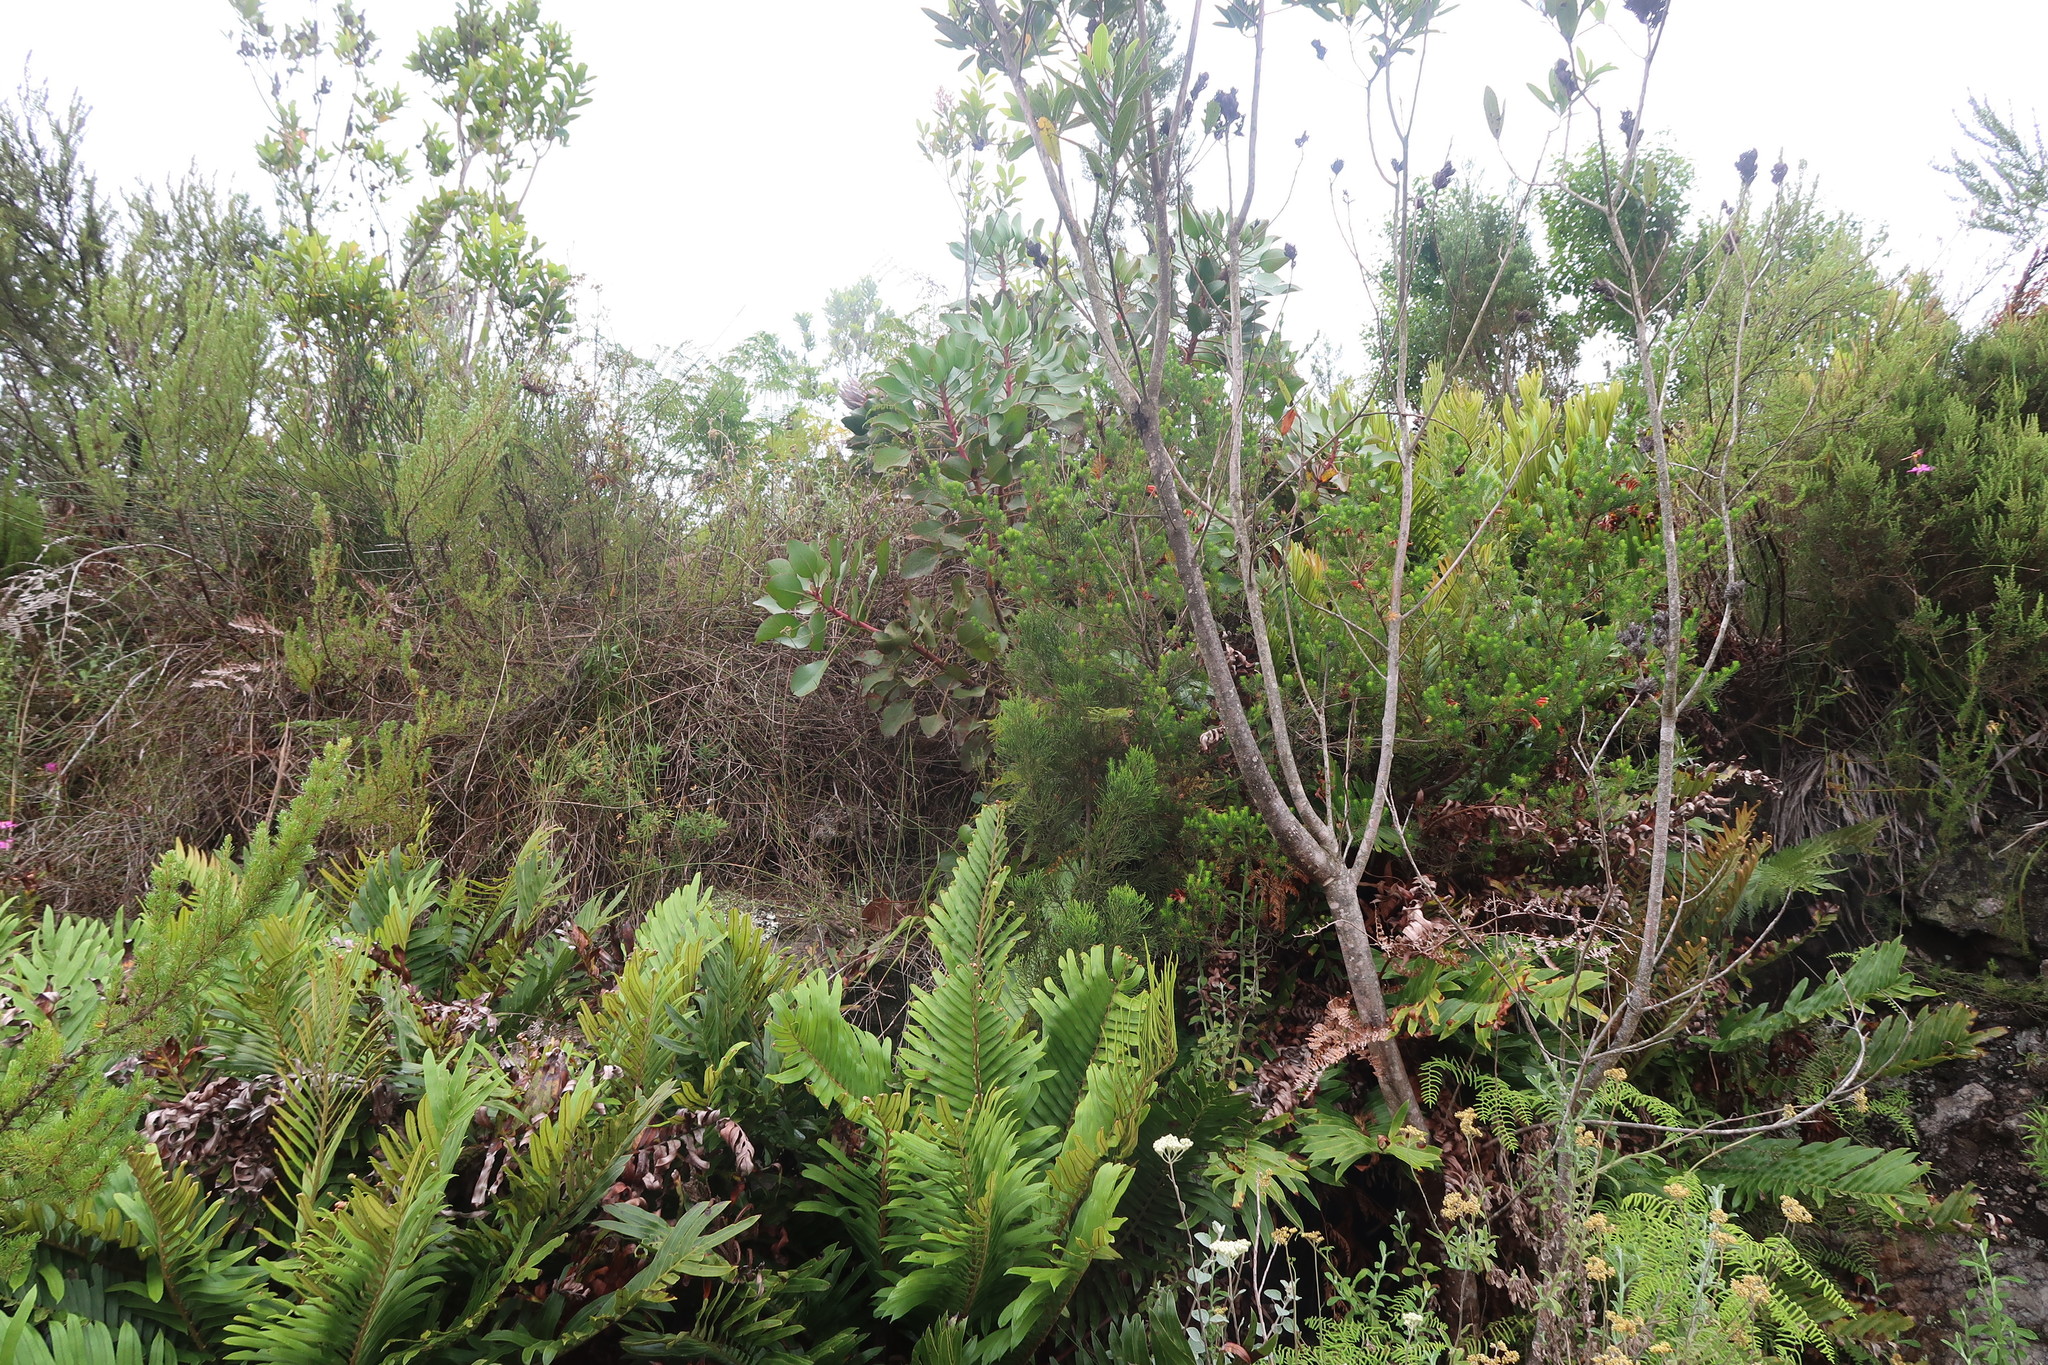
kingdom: Plantae
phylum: Tracheophyta
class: Polypodiopsida
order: Polypodiales
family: Blechnaceae
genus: Lomariocycas
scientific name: Lomariocycas tabularis
